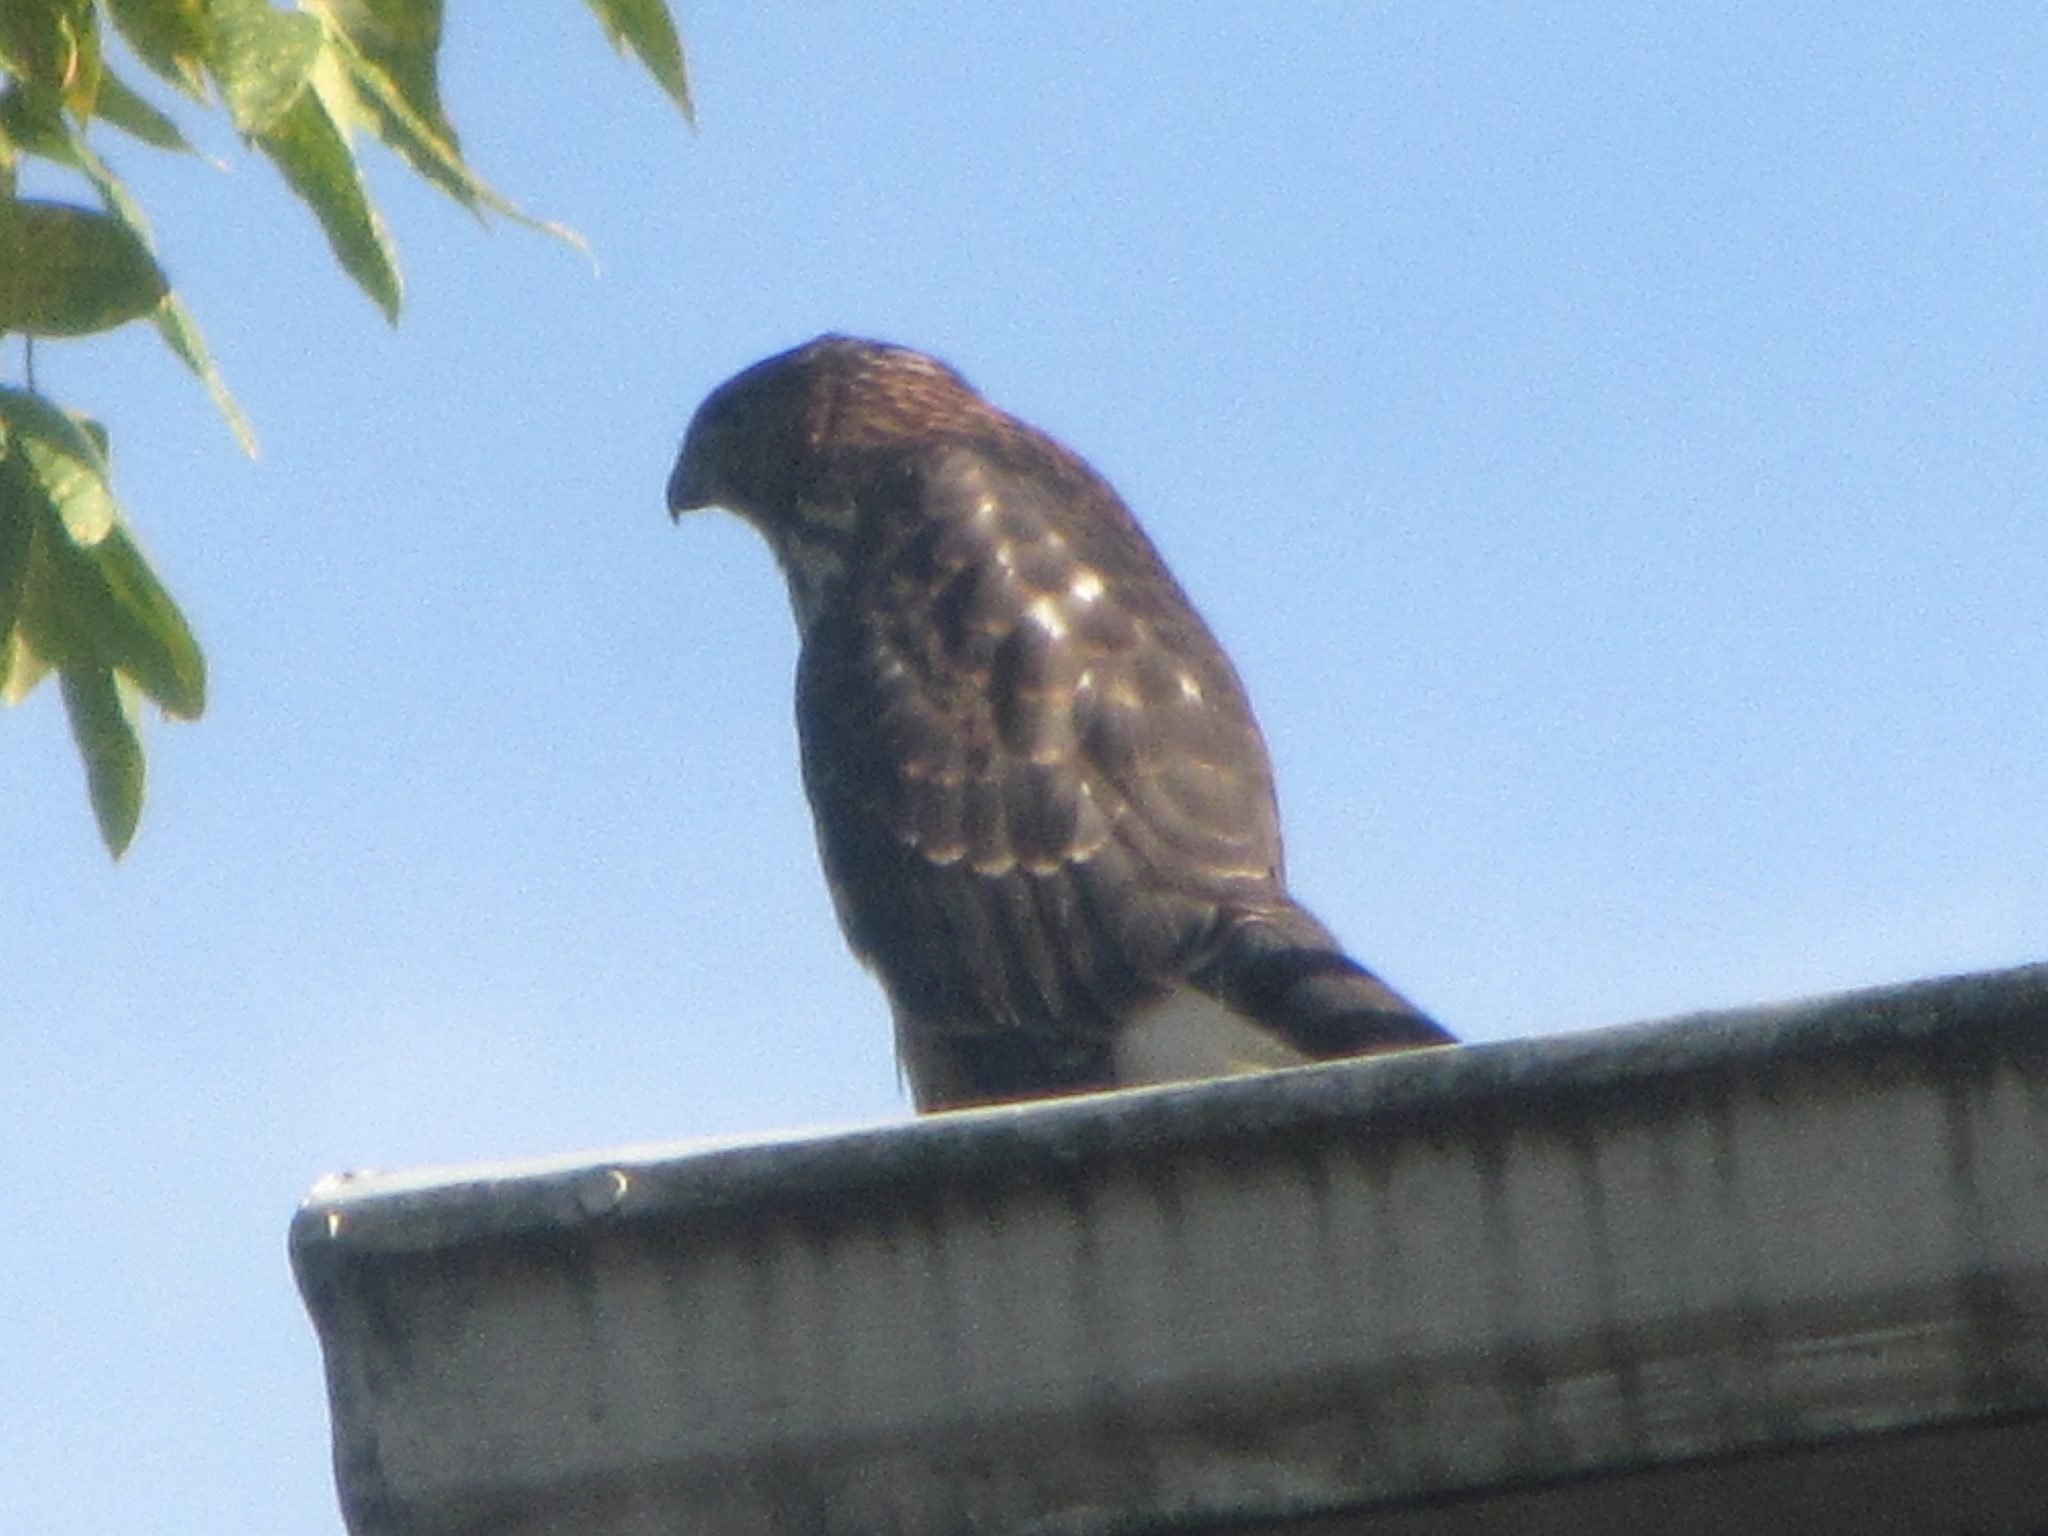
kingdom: Animalia
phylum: Chordata
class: Aves
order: Accipitriformes
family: Accipitridae
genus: Accipiter
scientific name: Accipiter cooperii
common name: Cooper's hawk
